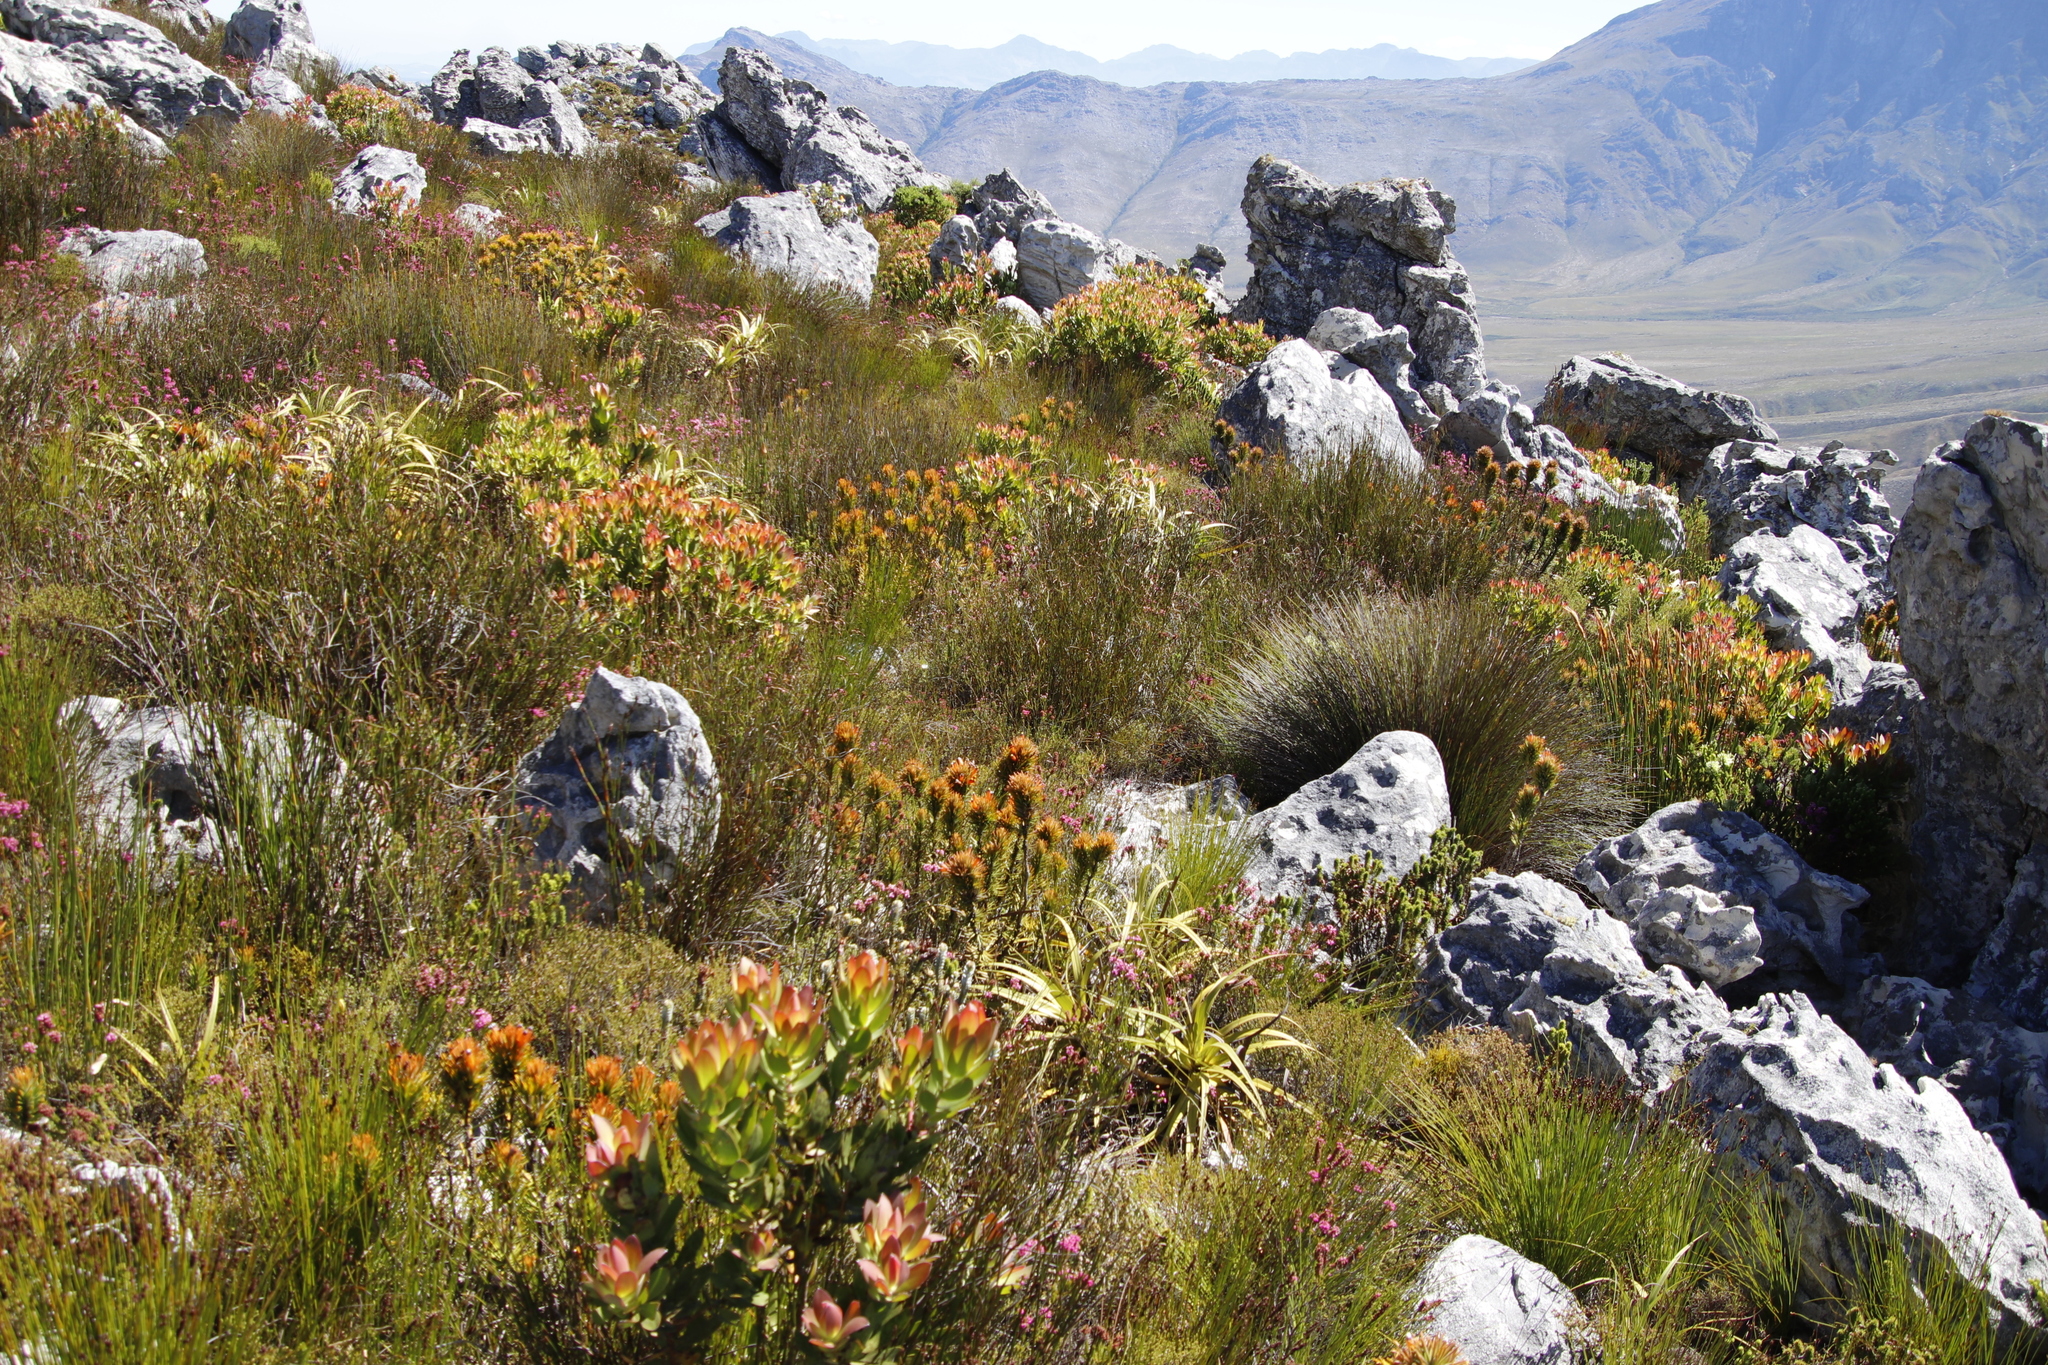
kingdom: Plantae
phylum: Tracheophyta
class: Magnoliopsida
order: Lamiales
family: Stilbaceae
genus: Retzia
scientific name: Retzia capensis
